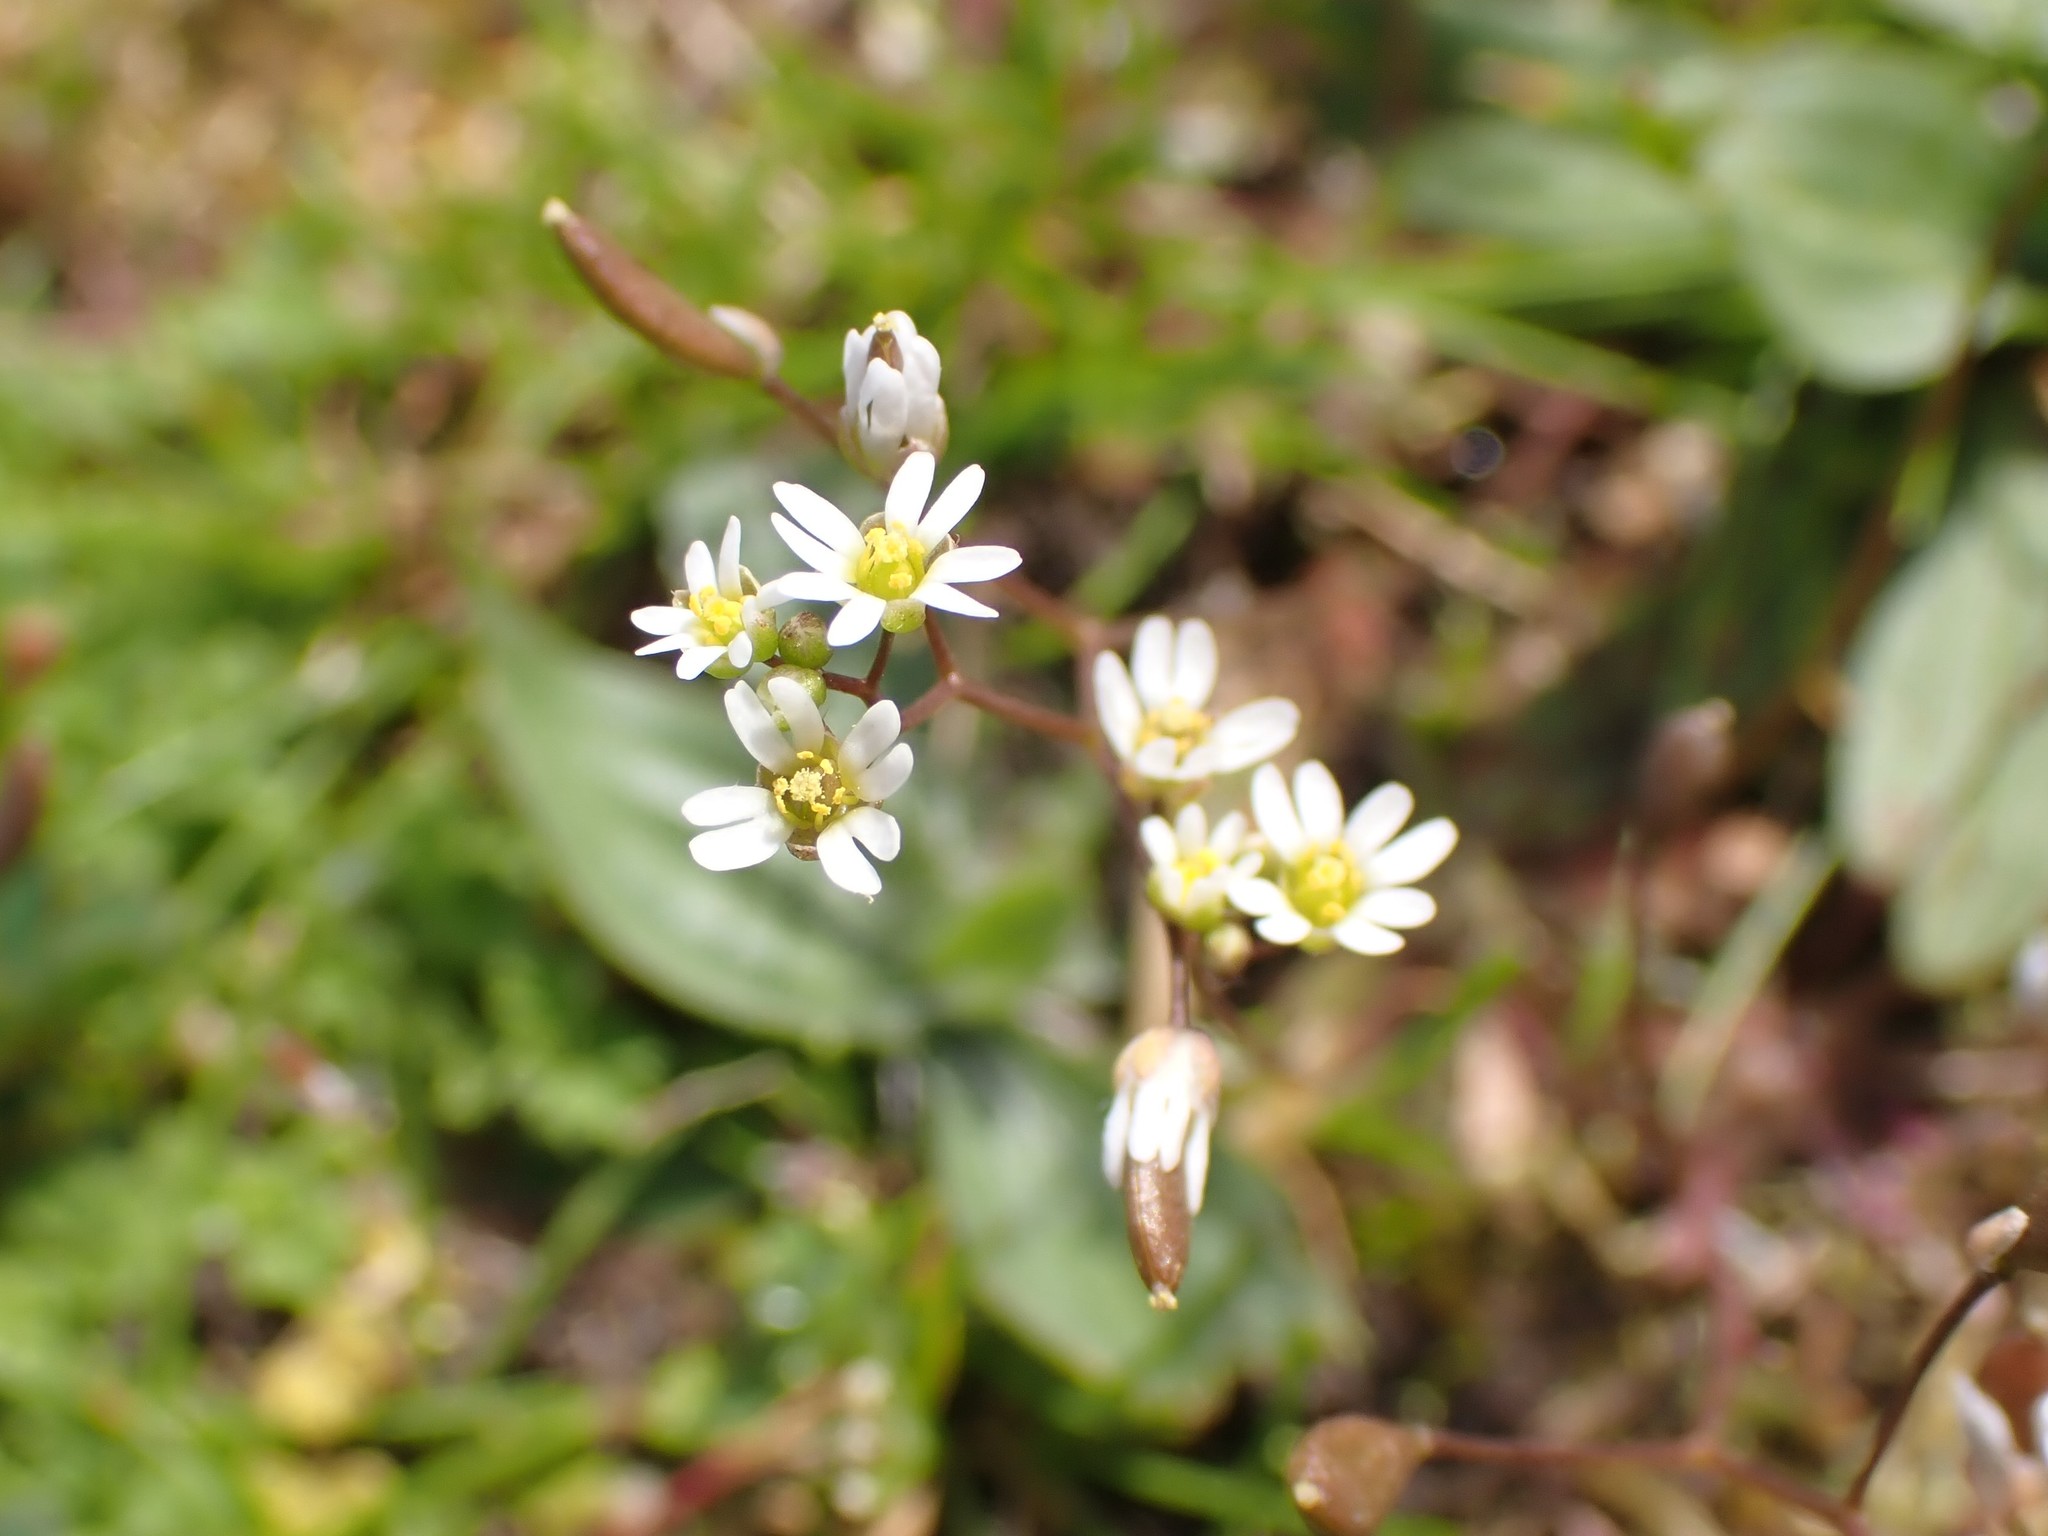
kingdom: Plantae
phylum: Tracheophyta
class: Magnoliopsida
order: Brassicales
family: Brassicaceae
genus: Draba
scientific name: Draba verna
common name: Spring draba
